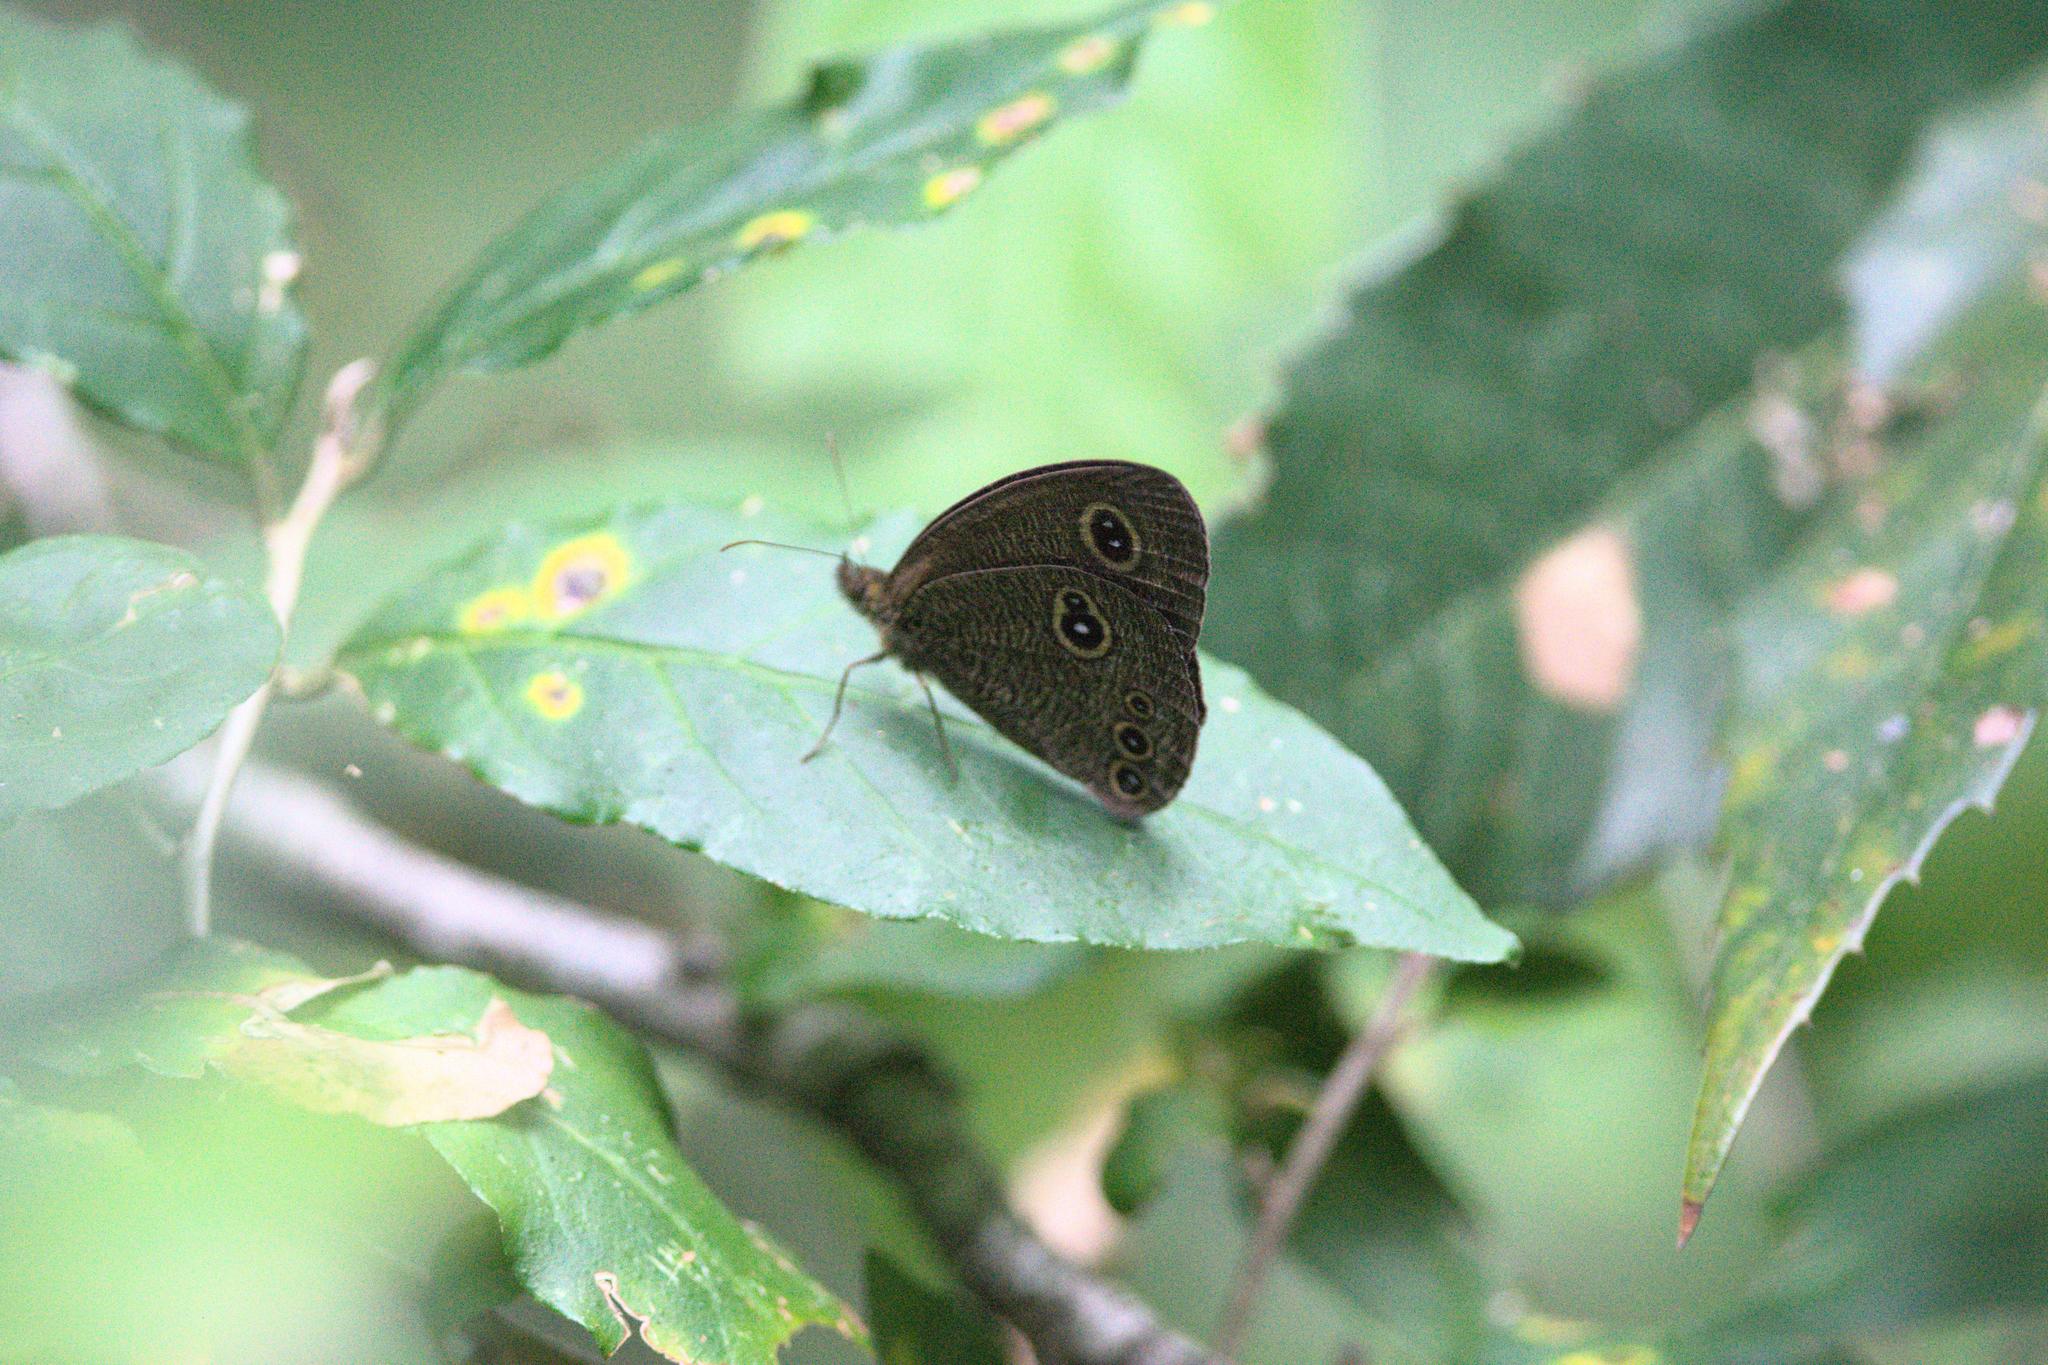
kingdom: Animalia
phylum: Arthropoda
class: Insecta
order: Lepidoptera
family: Nymphalidae
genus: Ypthima
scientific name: Ypthima nikaea
